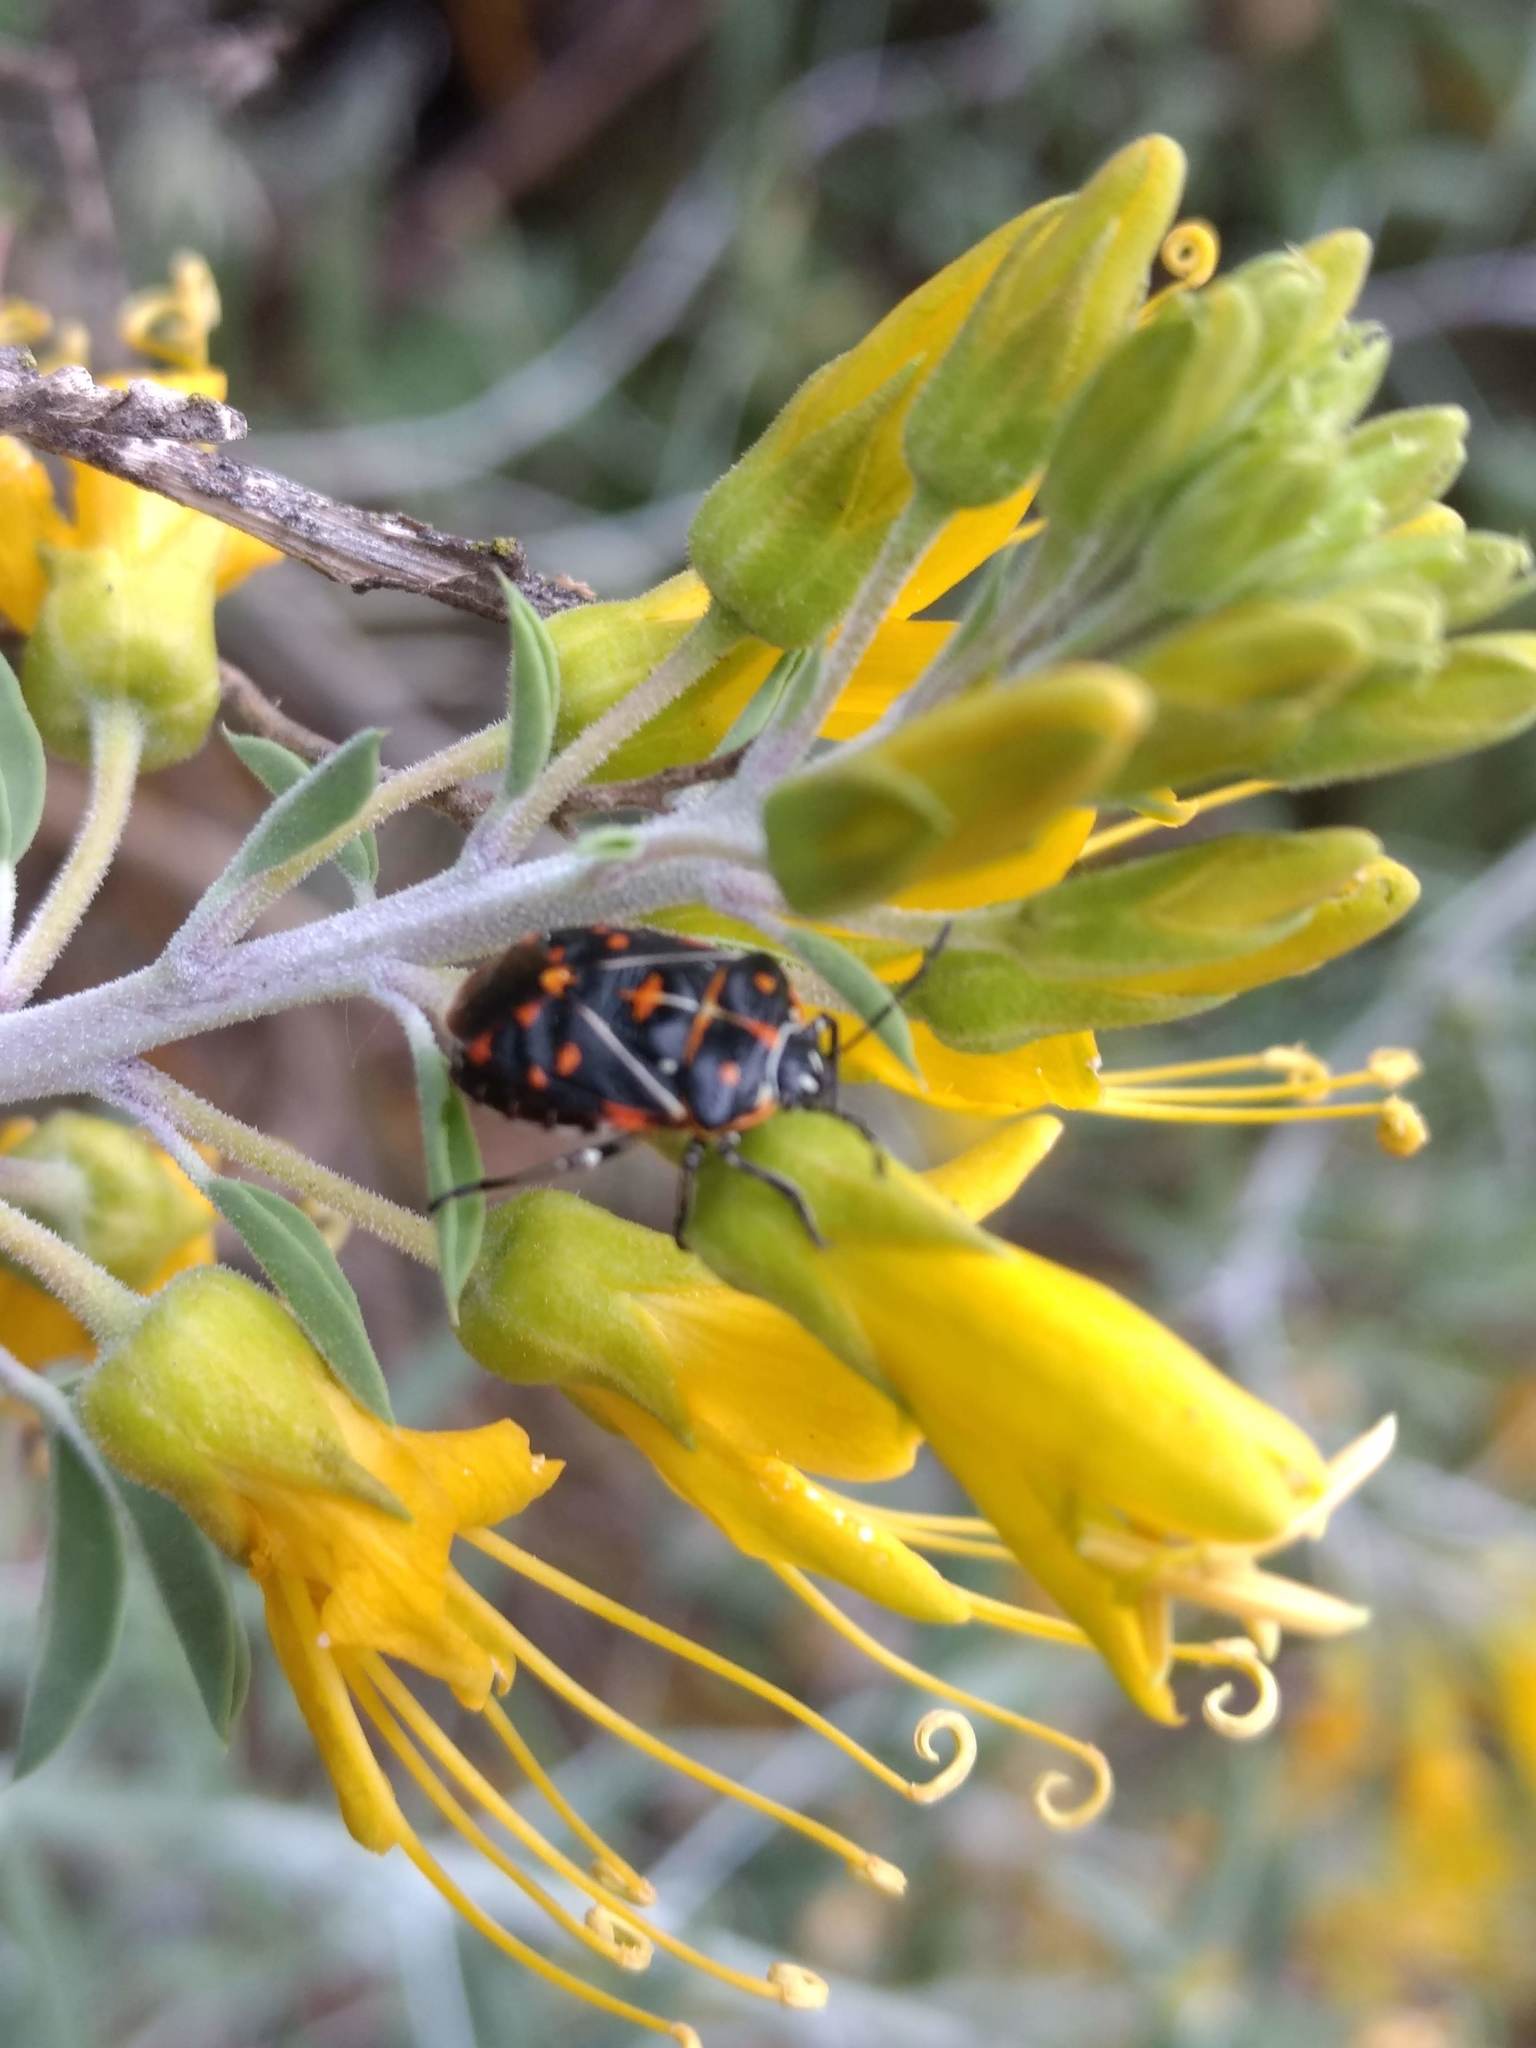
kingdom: Plantae
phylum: Tracheophyta
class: Magnoliopsida
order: Brassicales
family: Cleomaceae
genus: Cleomella
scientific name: Cleomella arborea
